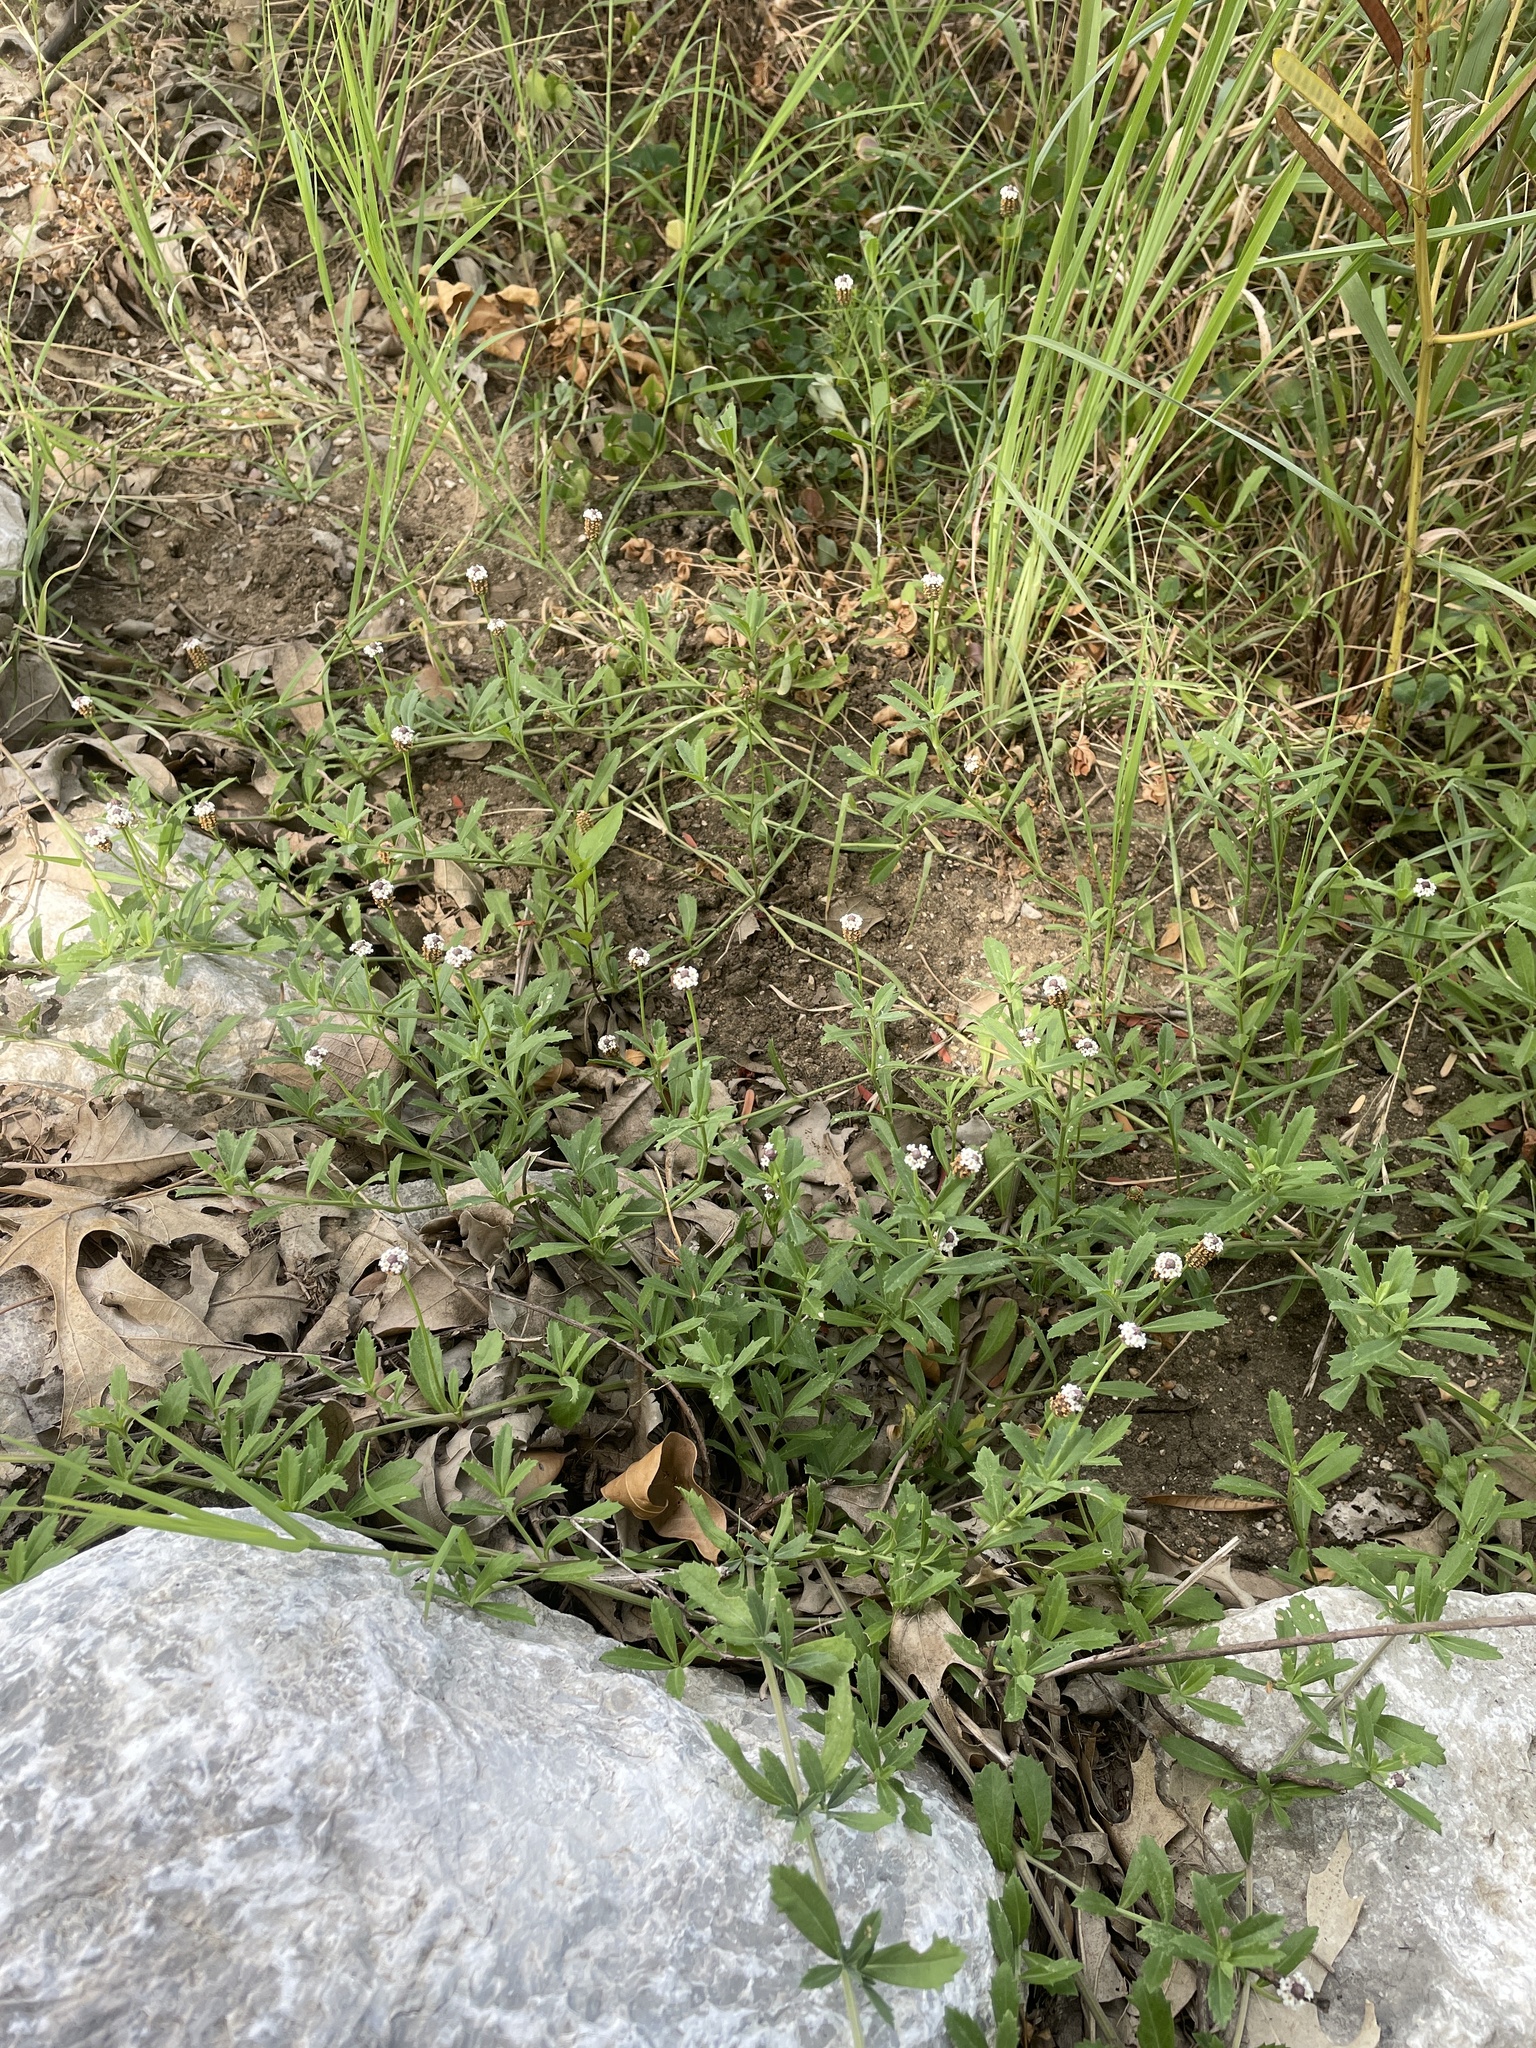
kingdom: Plantae
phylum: Tracheophyta
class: Magnoliopsida
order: Lamiales
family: Verbenaceae
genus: Phyla
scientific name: Phyla nodiflora
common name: Frogfruit
